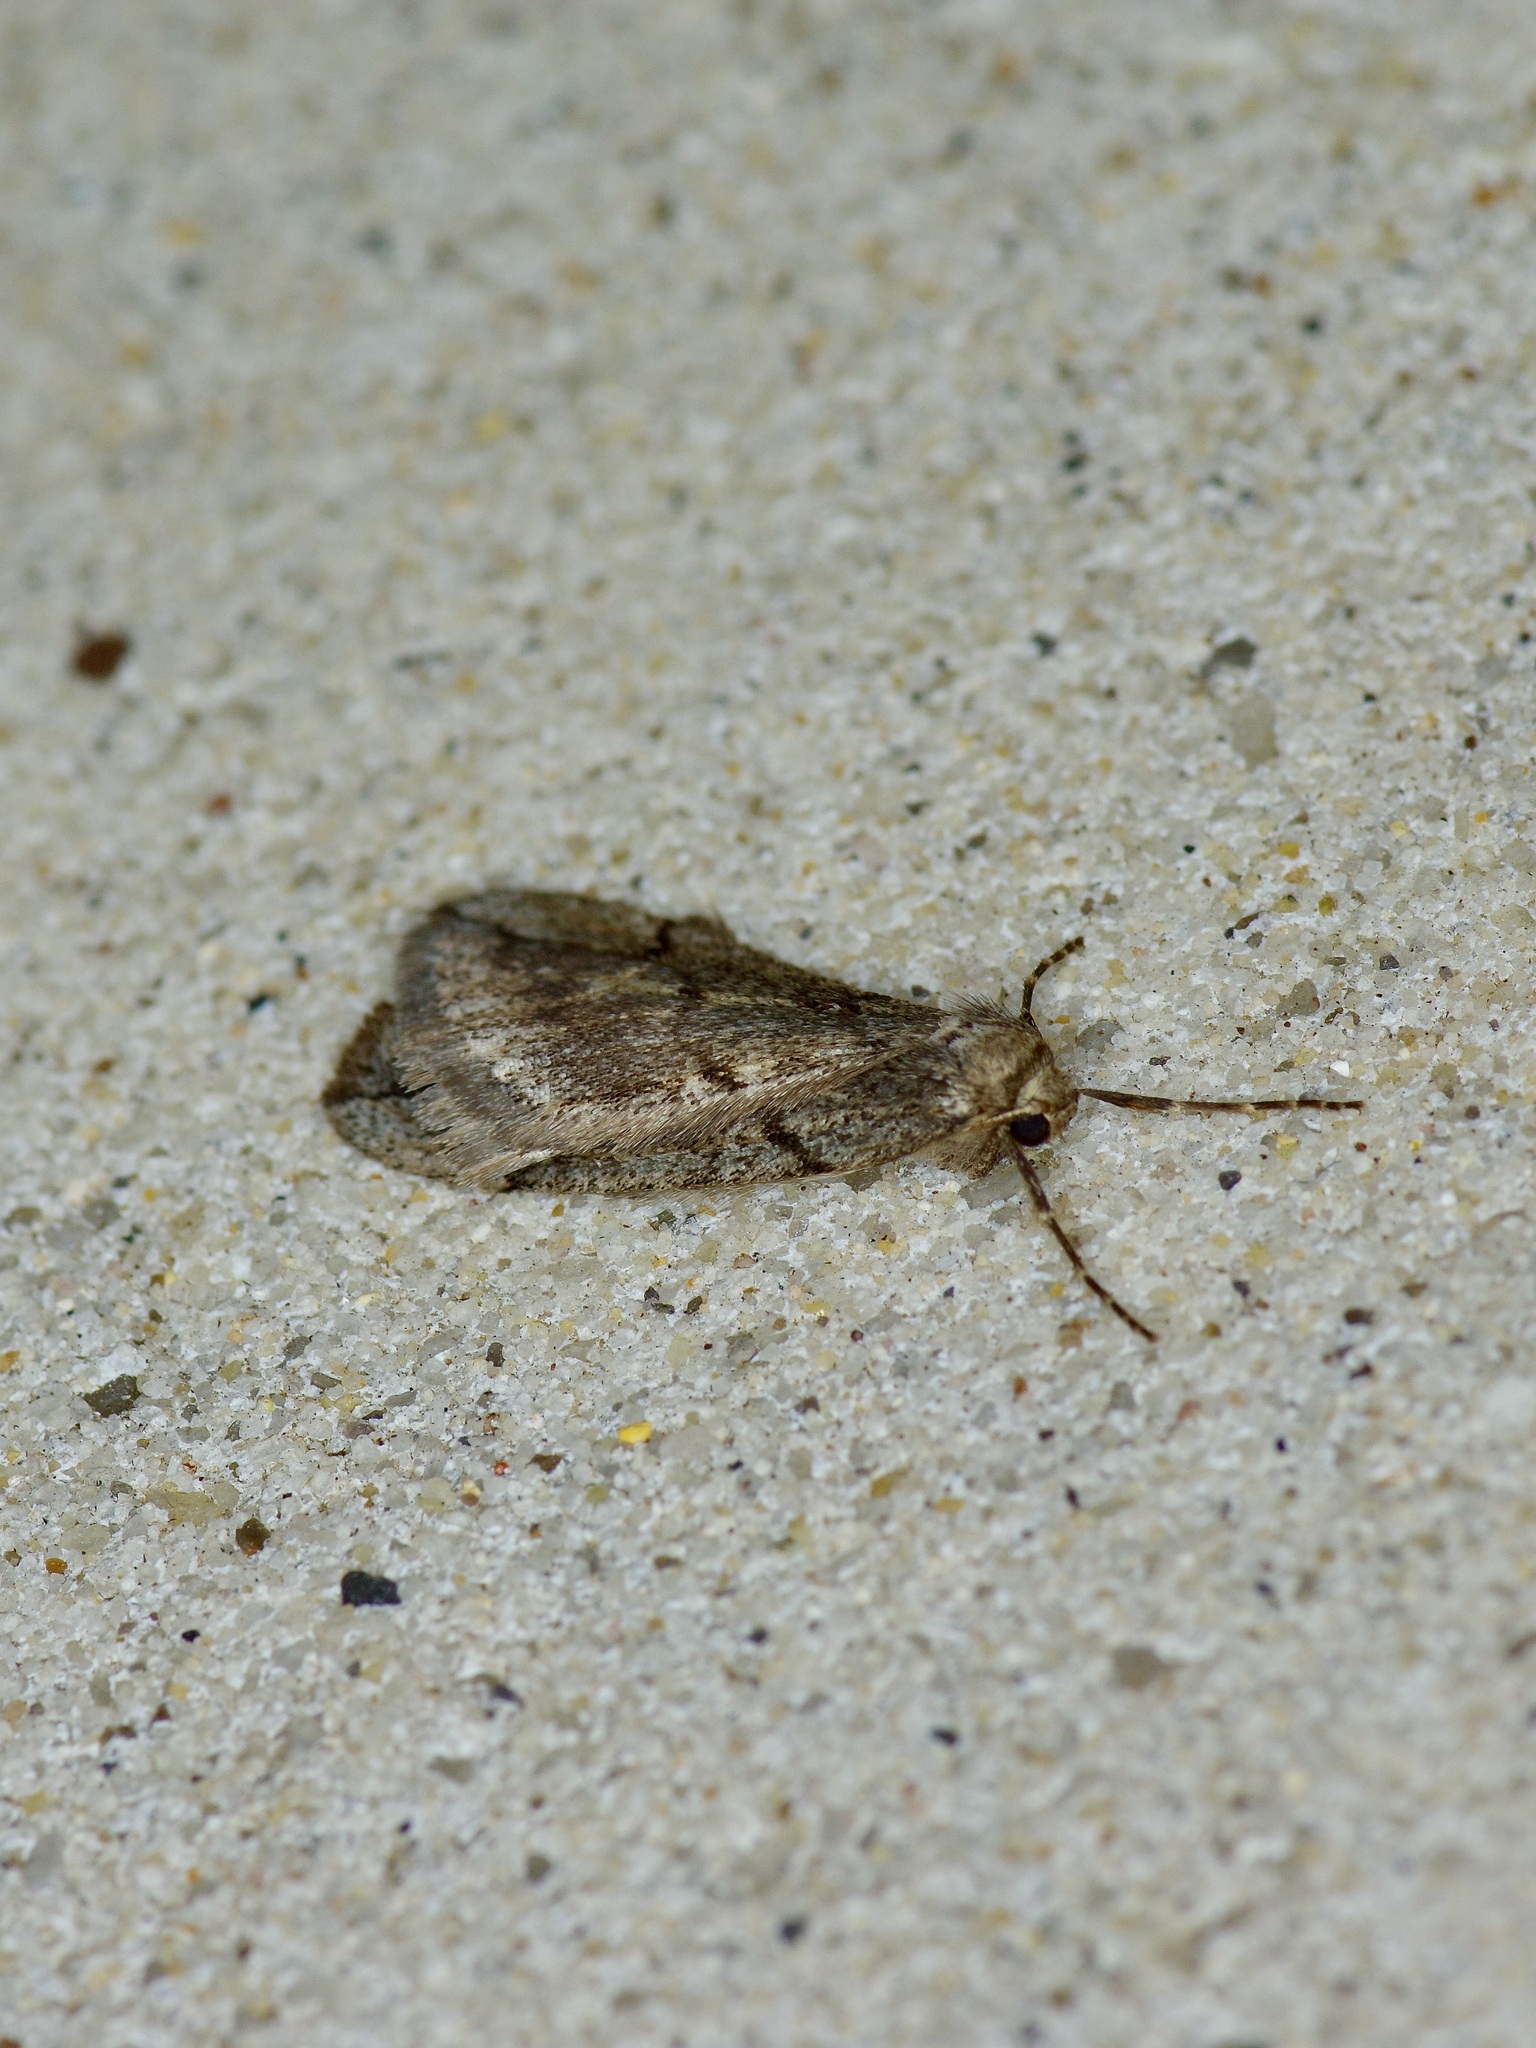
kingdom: Animalia
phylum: Arthropoda
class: Insecta
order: Lepidoptera
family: Geometridae
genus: Paleacrita
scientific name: Paleacrita vernata
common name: Spring cankerworm
